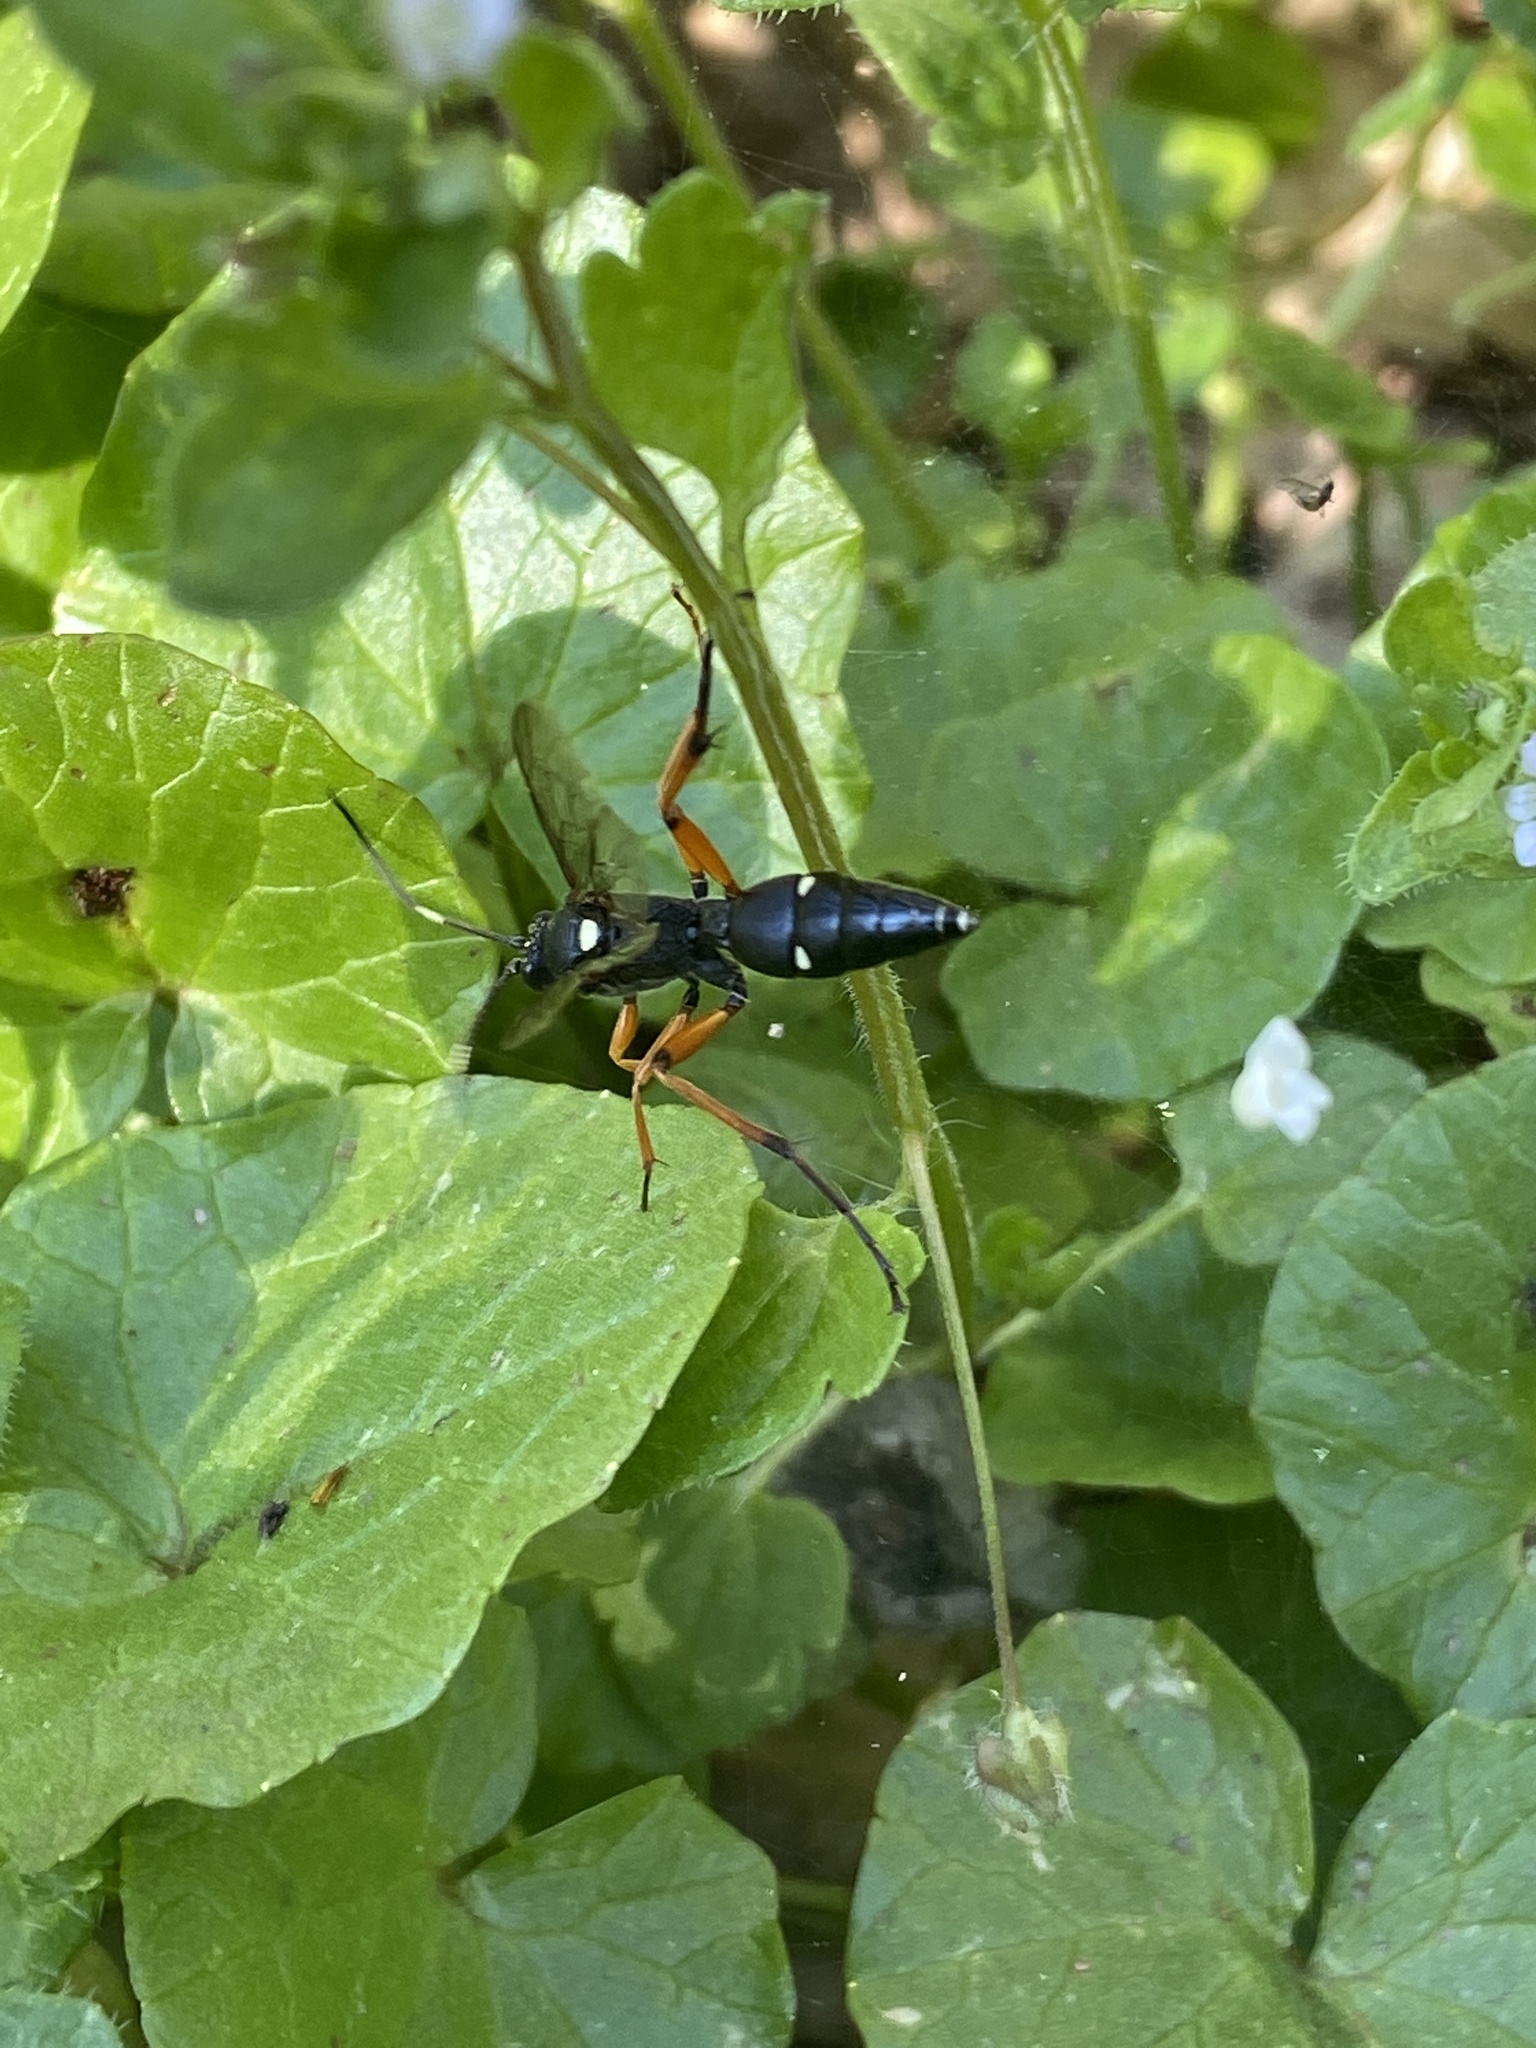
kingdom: Animalia
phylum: Arthropoda
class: Insecta
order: Hymenoptera
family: Ichneumonidae
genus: Diphyus
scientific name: Diphyus quadripunctorius
